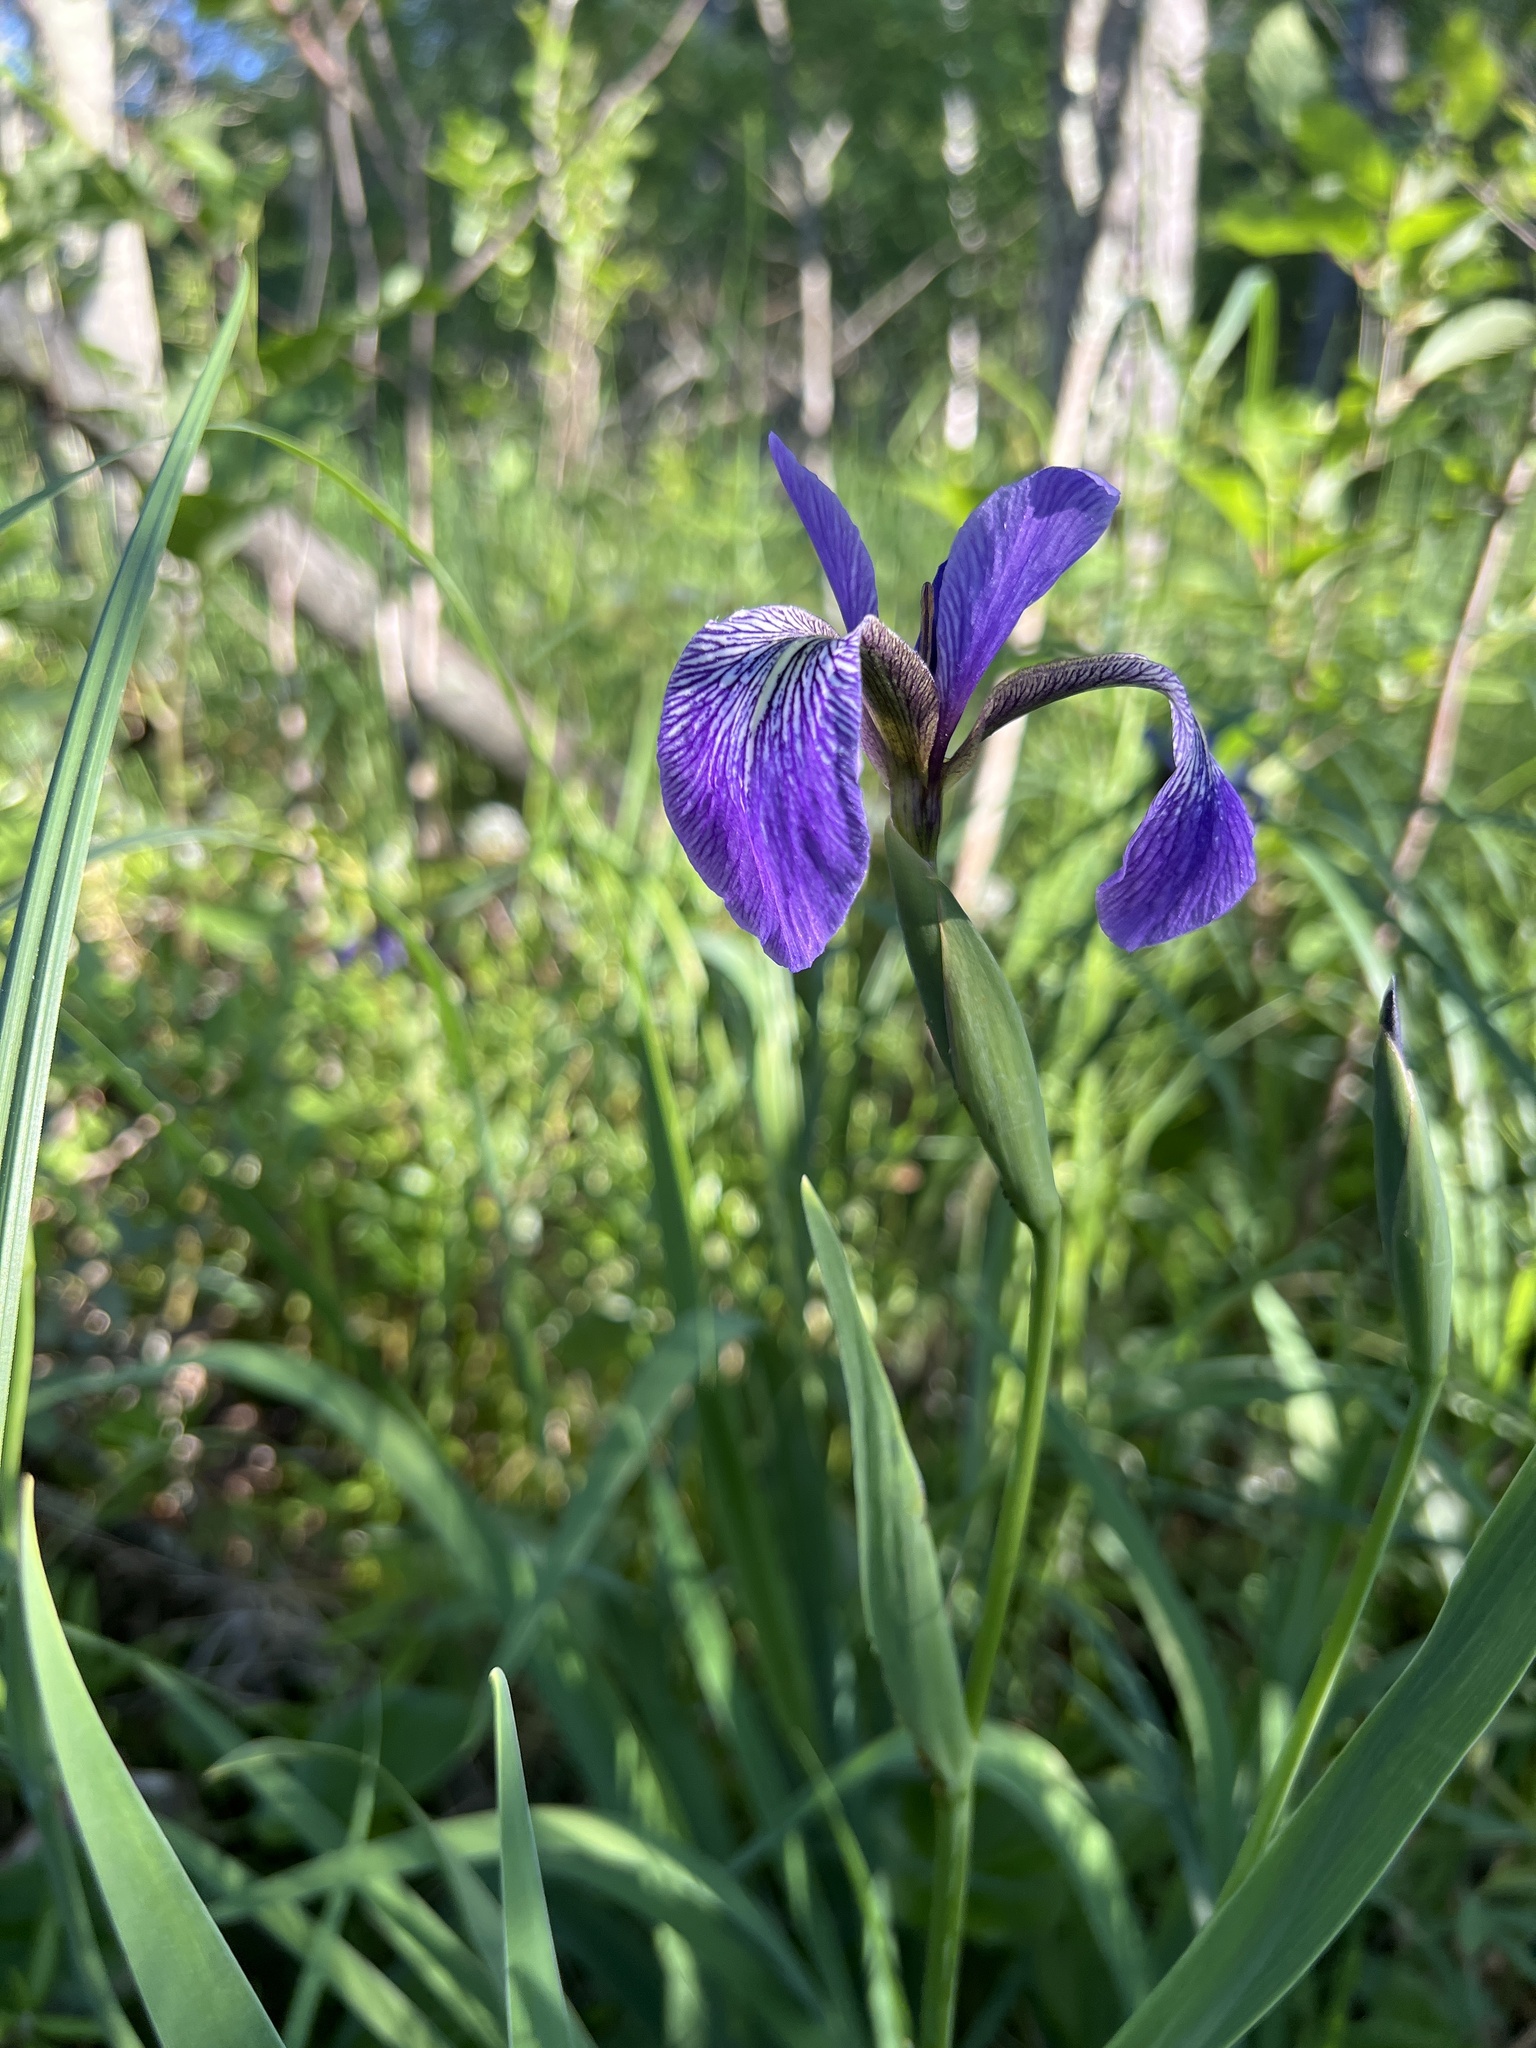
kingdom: Plantae
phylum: Tracheophyta
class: Liliopsida
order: Asparagales
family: Iridaceae
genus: Iris
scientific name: Iris versicolor
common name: Purple iris
